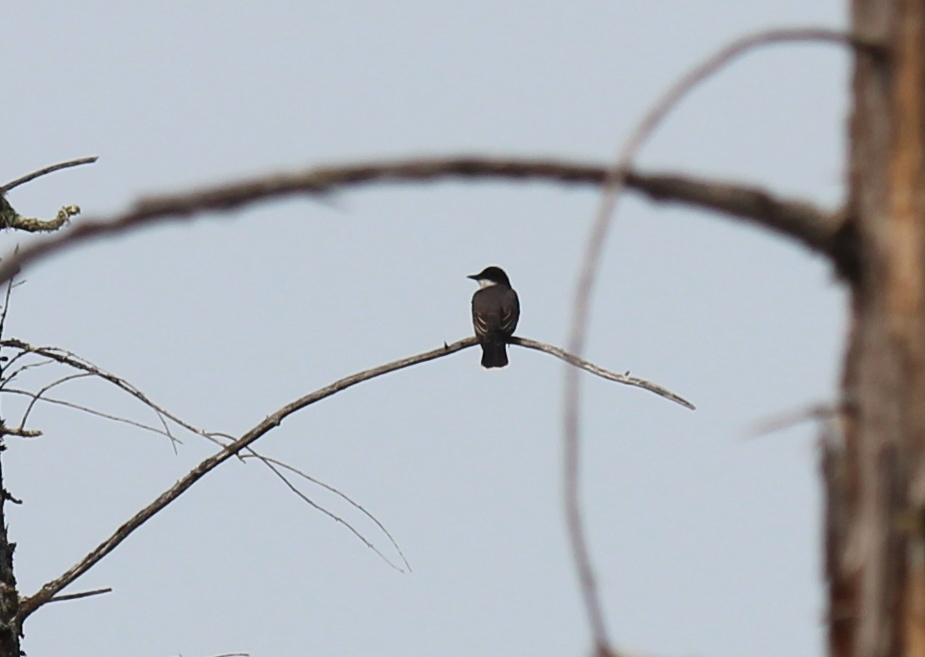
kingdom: Animalia
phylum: Chordata
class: Aves
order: Passeriformes
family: Tyrannidae
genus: Tyrannus
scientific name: Tyrannus tyrannus
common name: Eastern kingbird
